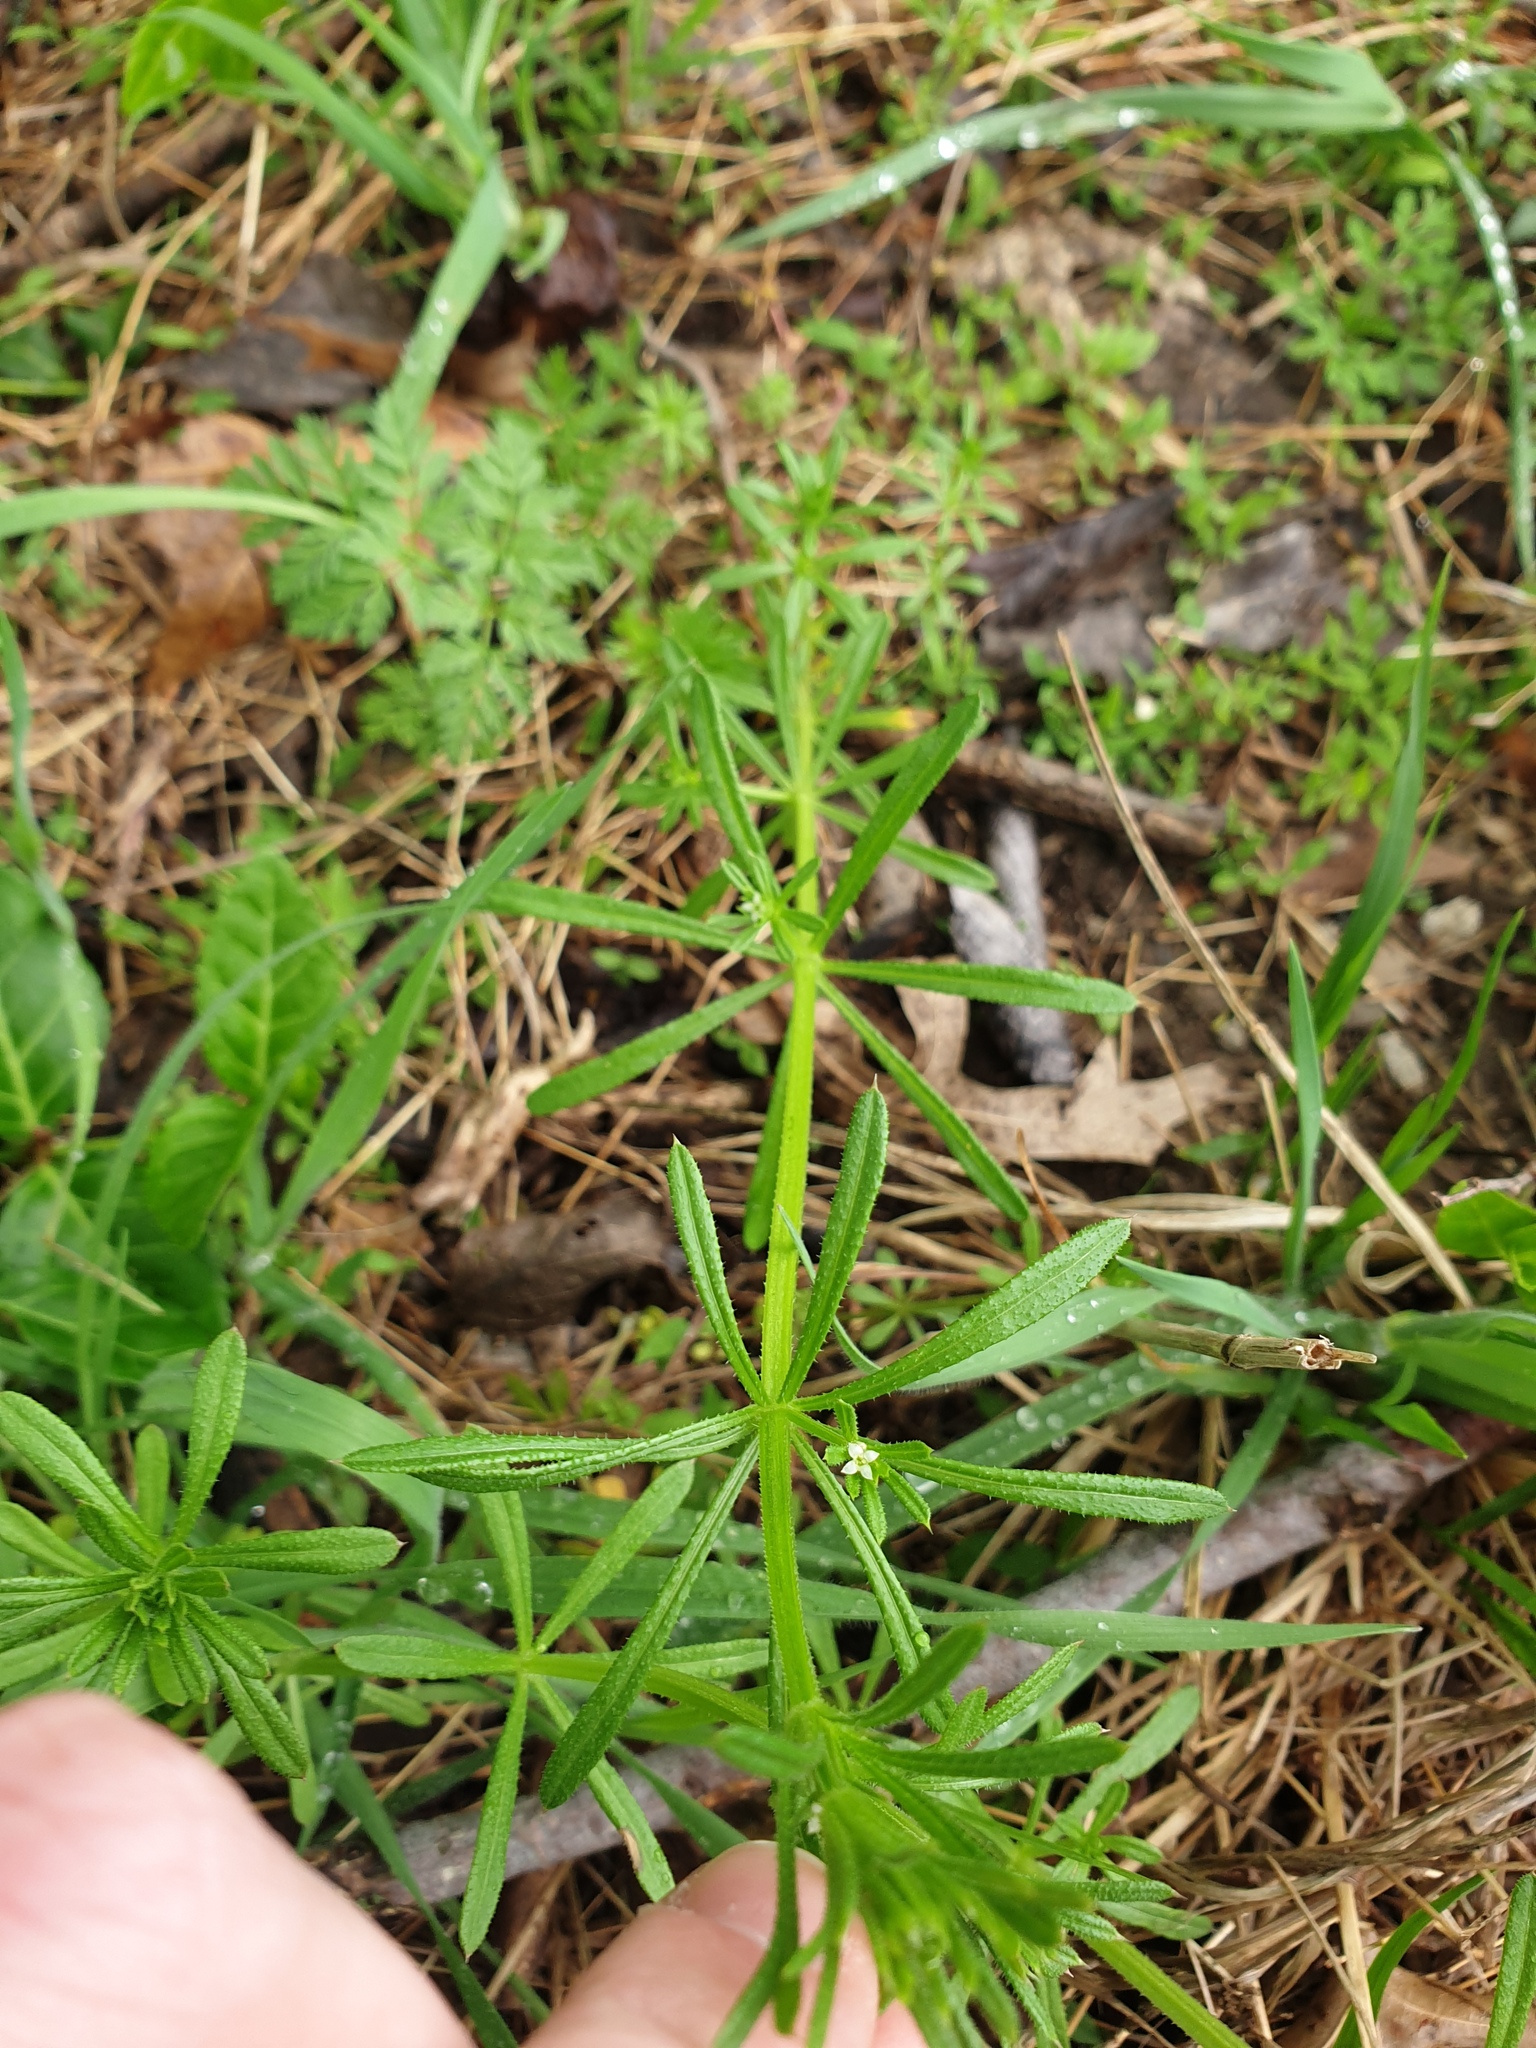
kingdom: Plantae
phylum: Tracheophyta
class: Magnoliopsida
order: Gentianales
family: Rubiaceae
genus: Galium
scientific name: Galium aparine
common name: Cleavers
